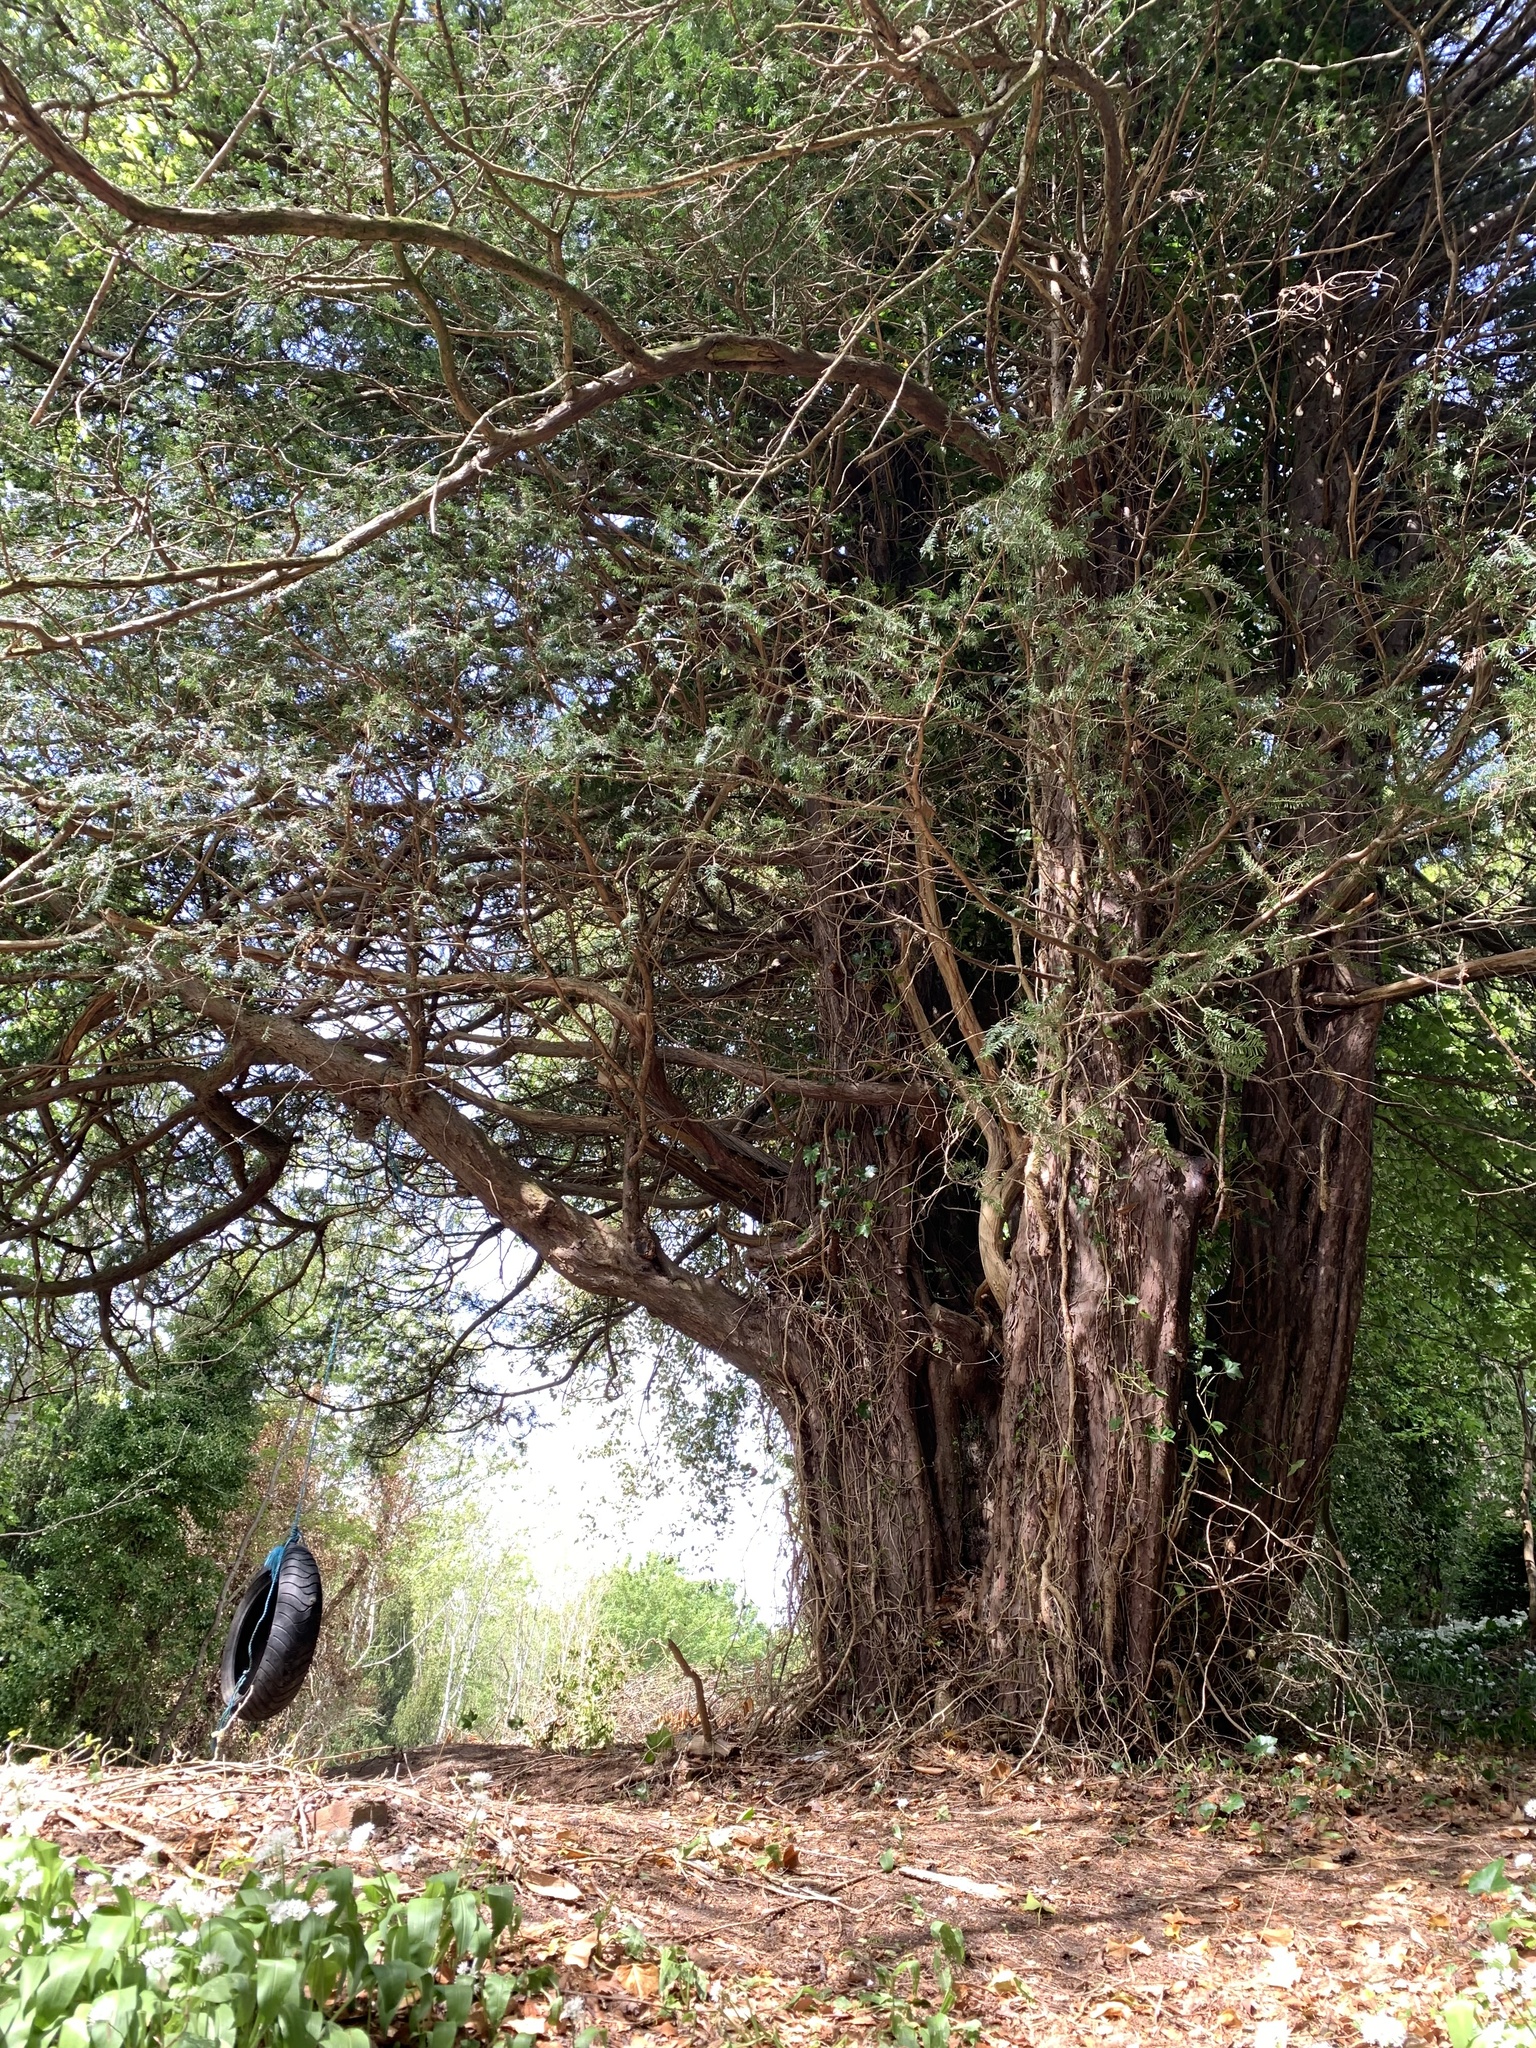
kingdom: Plantae
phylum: Tracheophyta
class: Pinopsida
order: Pinales
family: Taxaceae
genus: Taxus
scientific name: Taxus baccata
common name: Yew
